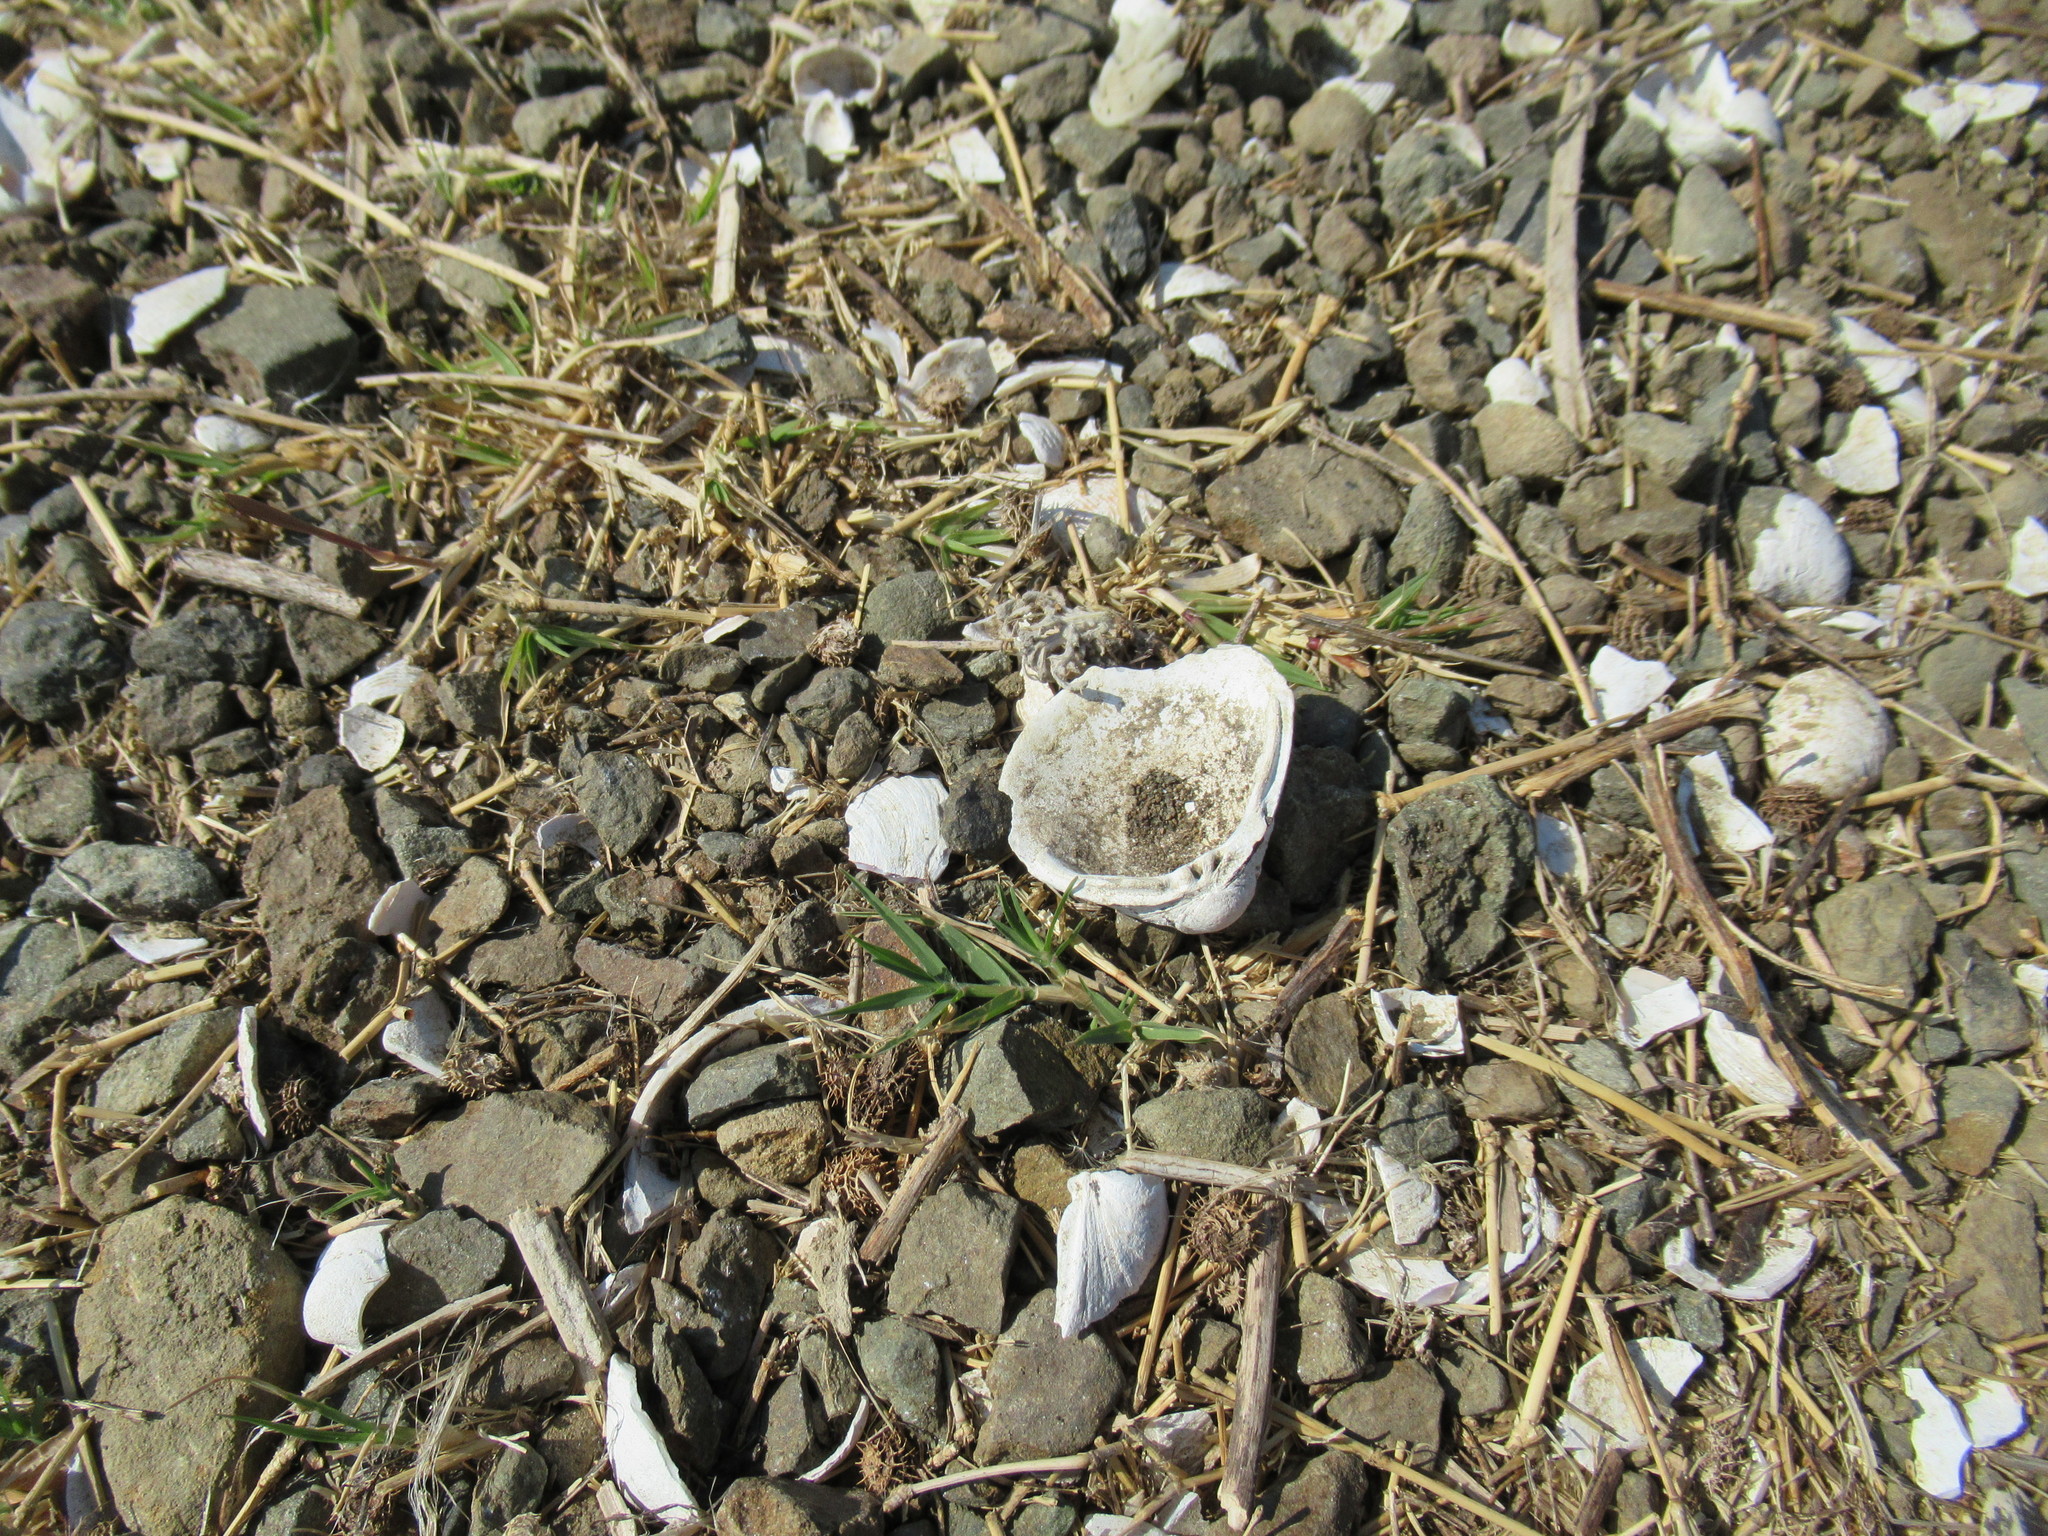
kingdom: Animalia
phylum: Mollusca
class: Bivalvia
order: Venerida
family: Cyrenidae
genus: Corbicula
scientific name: Corbicula fluminea
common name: Asian clam
